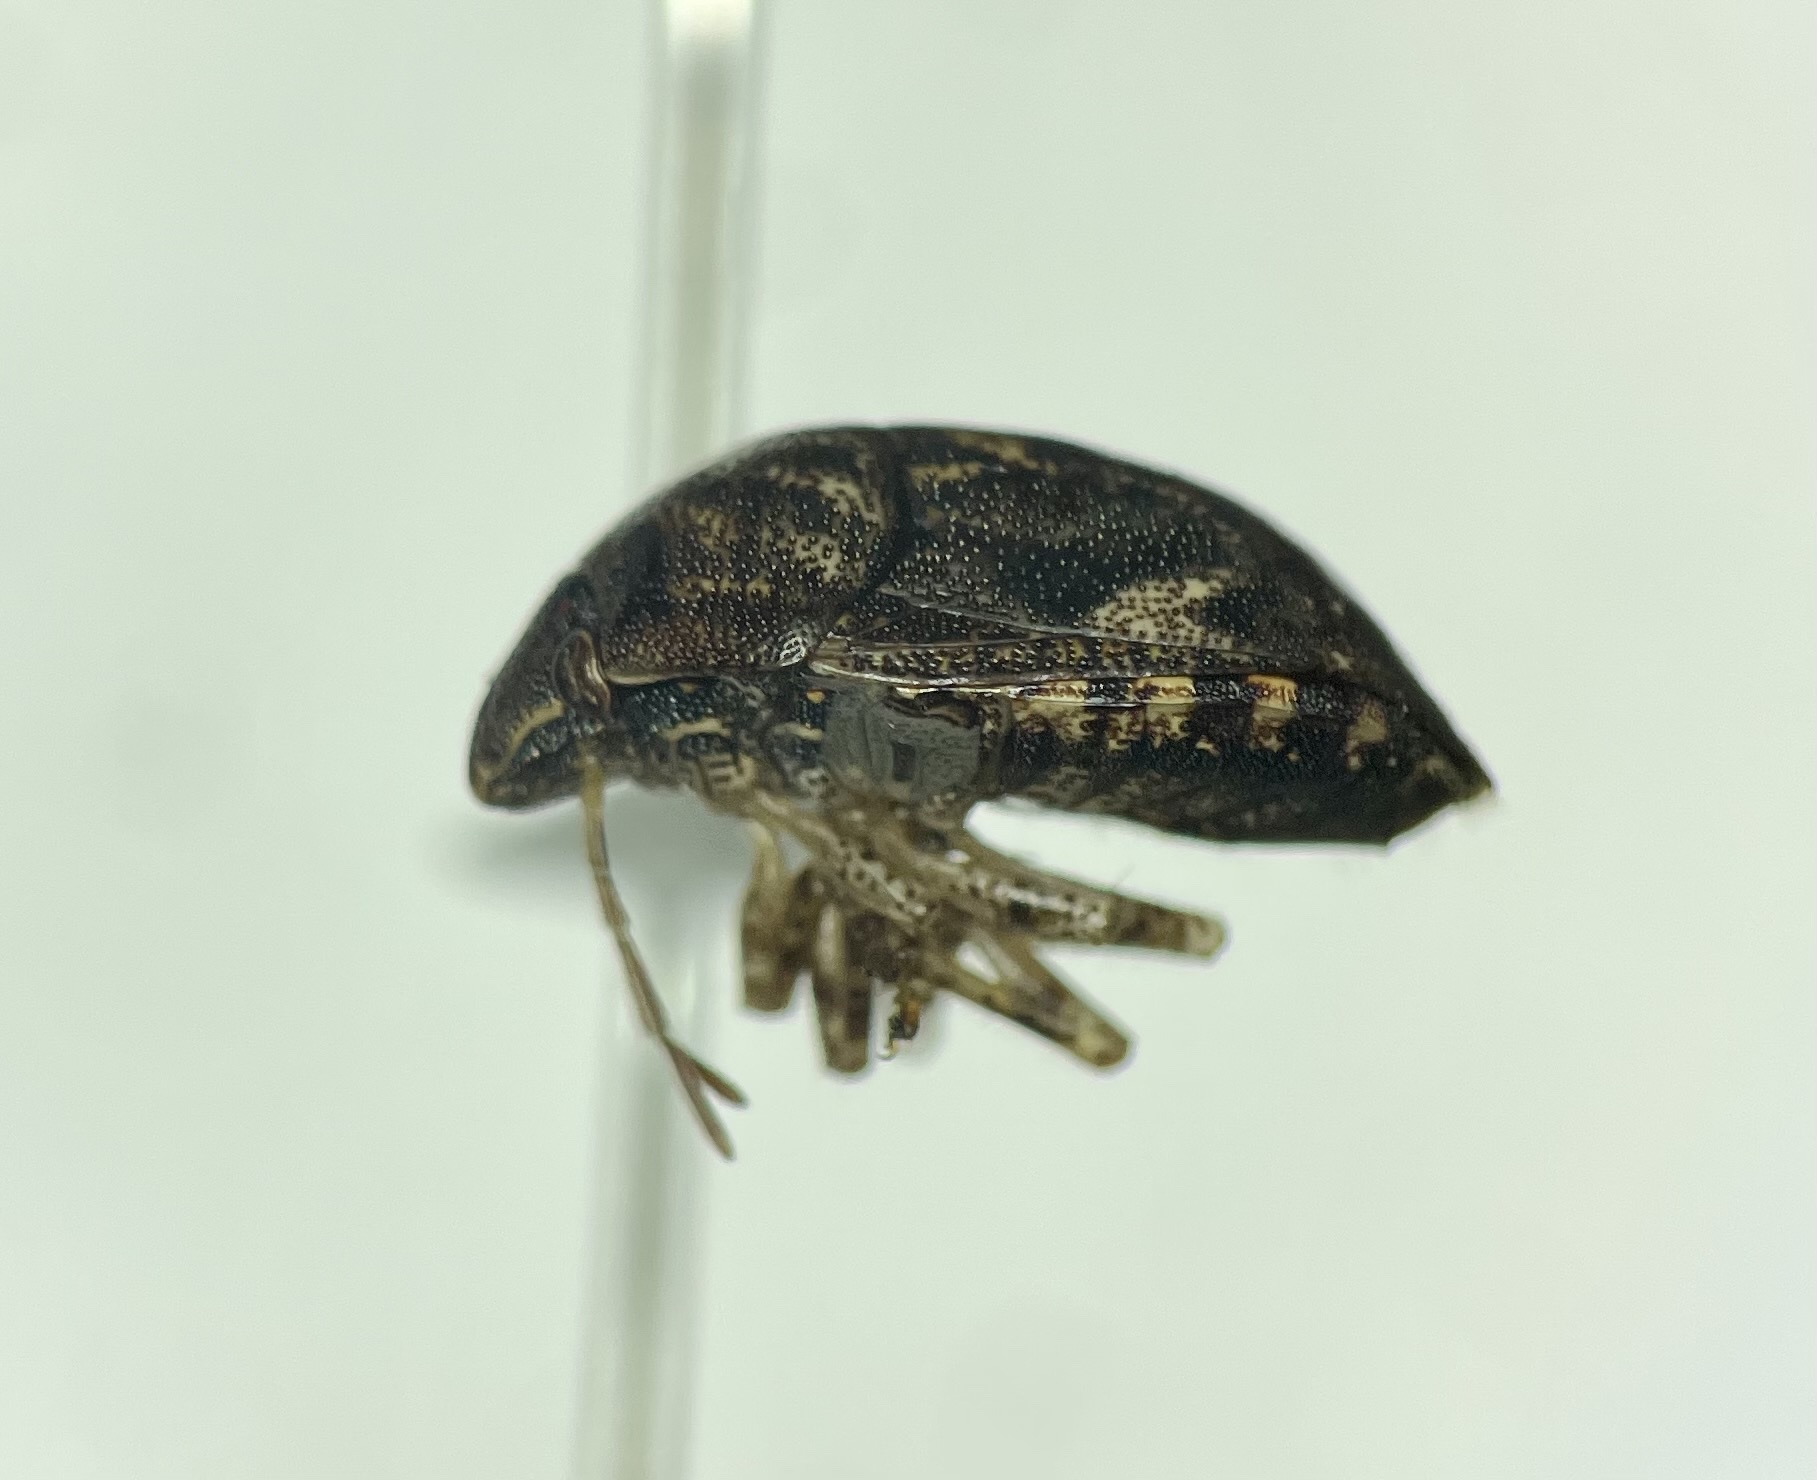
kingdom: Animalia
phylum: Arthropoda
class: Insecta
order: Hemiptera
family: Scutelleridae
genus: Stethaulax
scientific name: Stethaulax marmoratus
